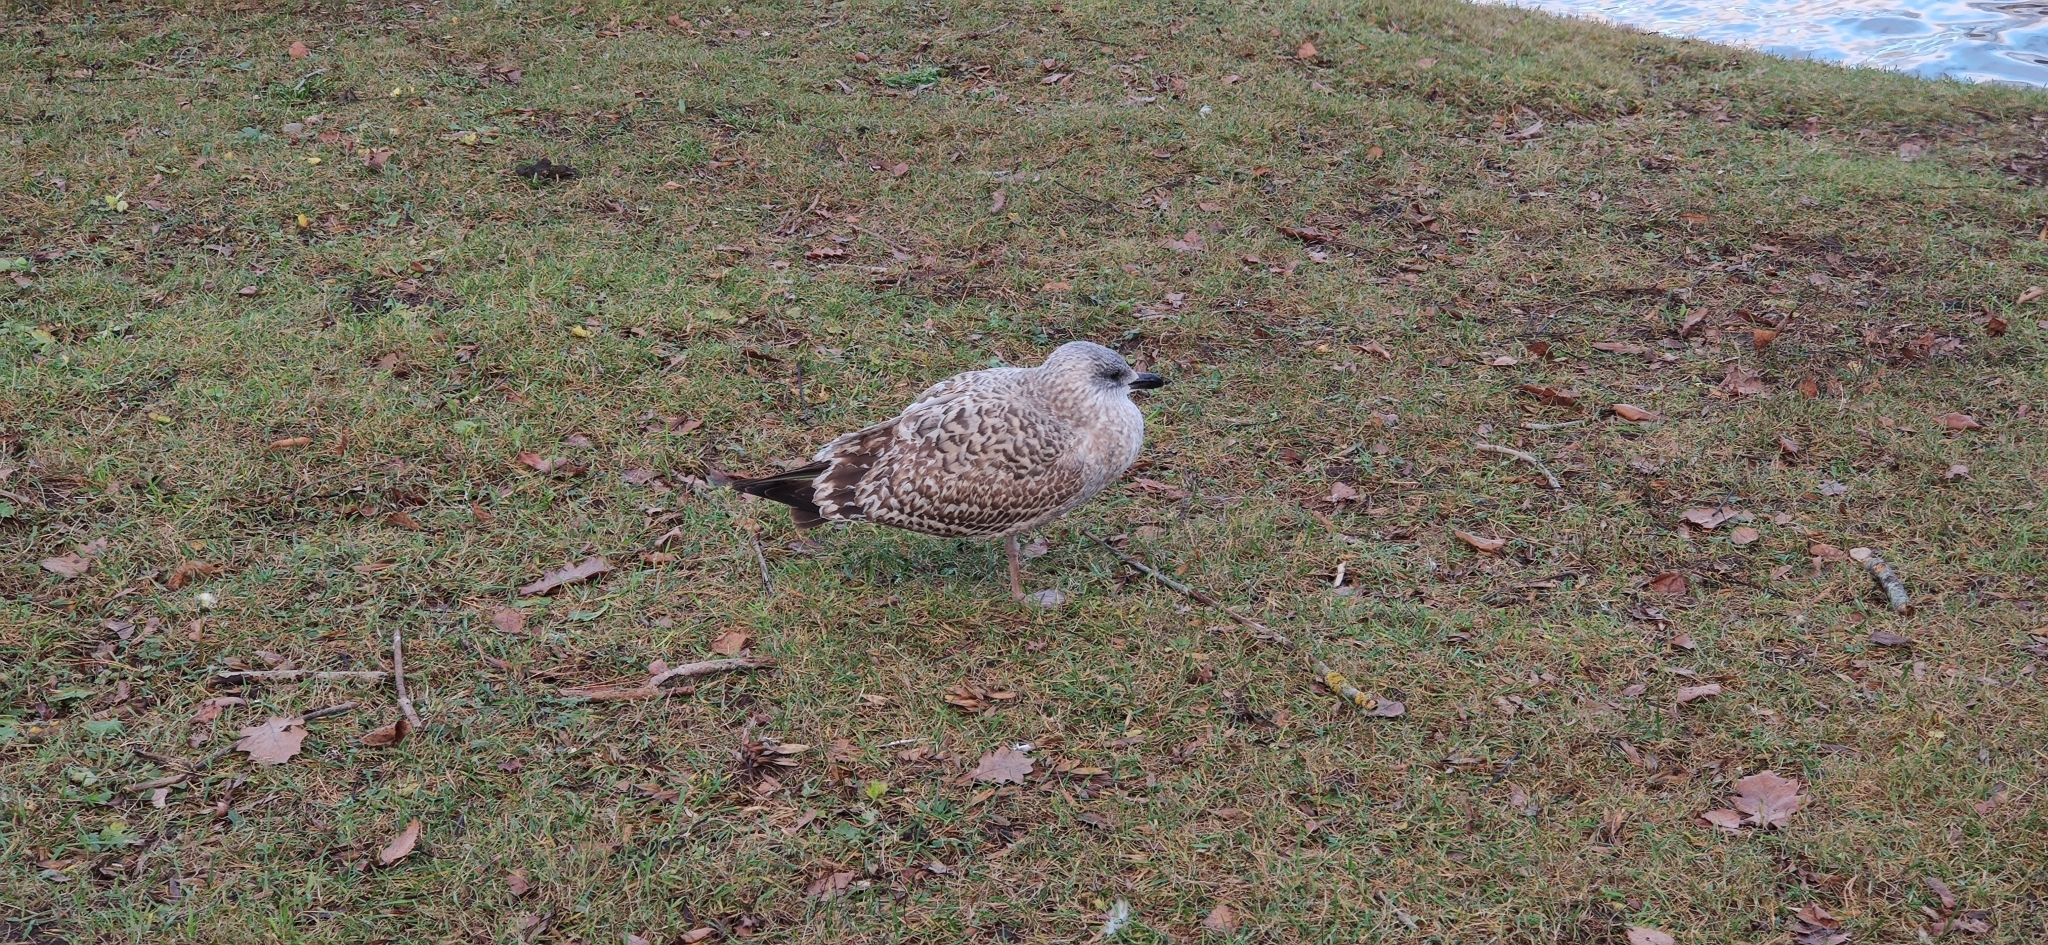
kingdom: Animalia
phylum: Chordata
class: Aves
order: Charadriiformes
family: Laridae
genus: Larus
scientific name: Larus argentatus
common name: Herring gull
